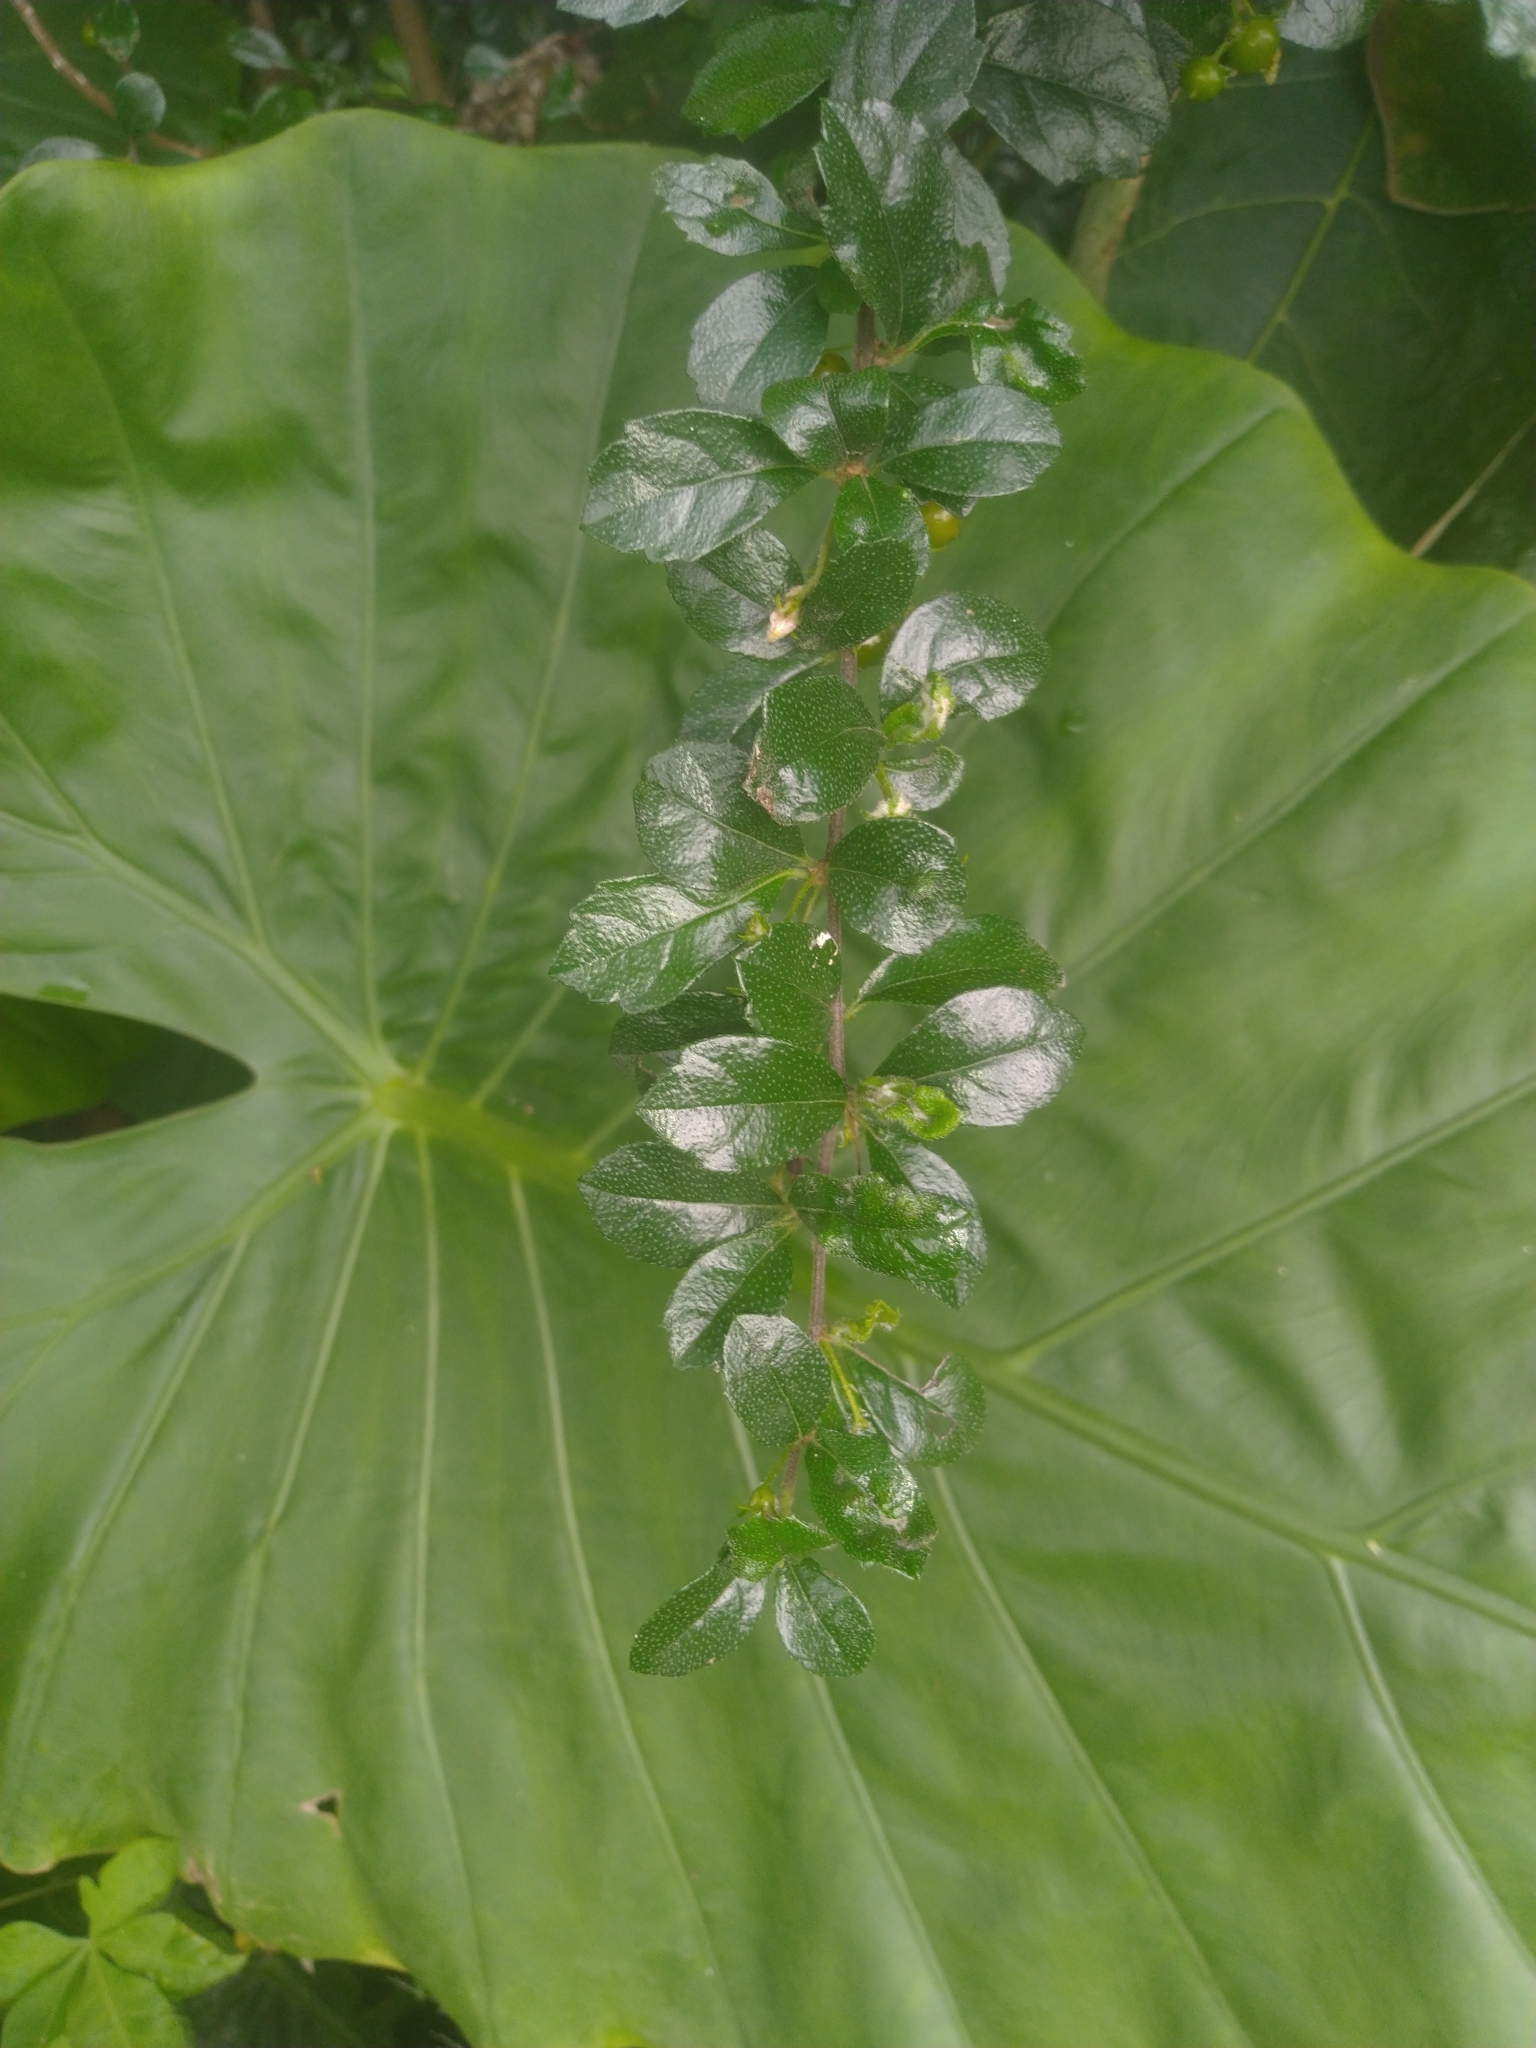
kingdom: Plantae
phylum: Tracheophyta
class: Magnoliopsida
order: Boraginales
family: Ehretiaceae
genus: Ehretia
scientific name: Ehretia microphylla
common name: Fukien-tea
